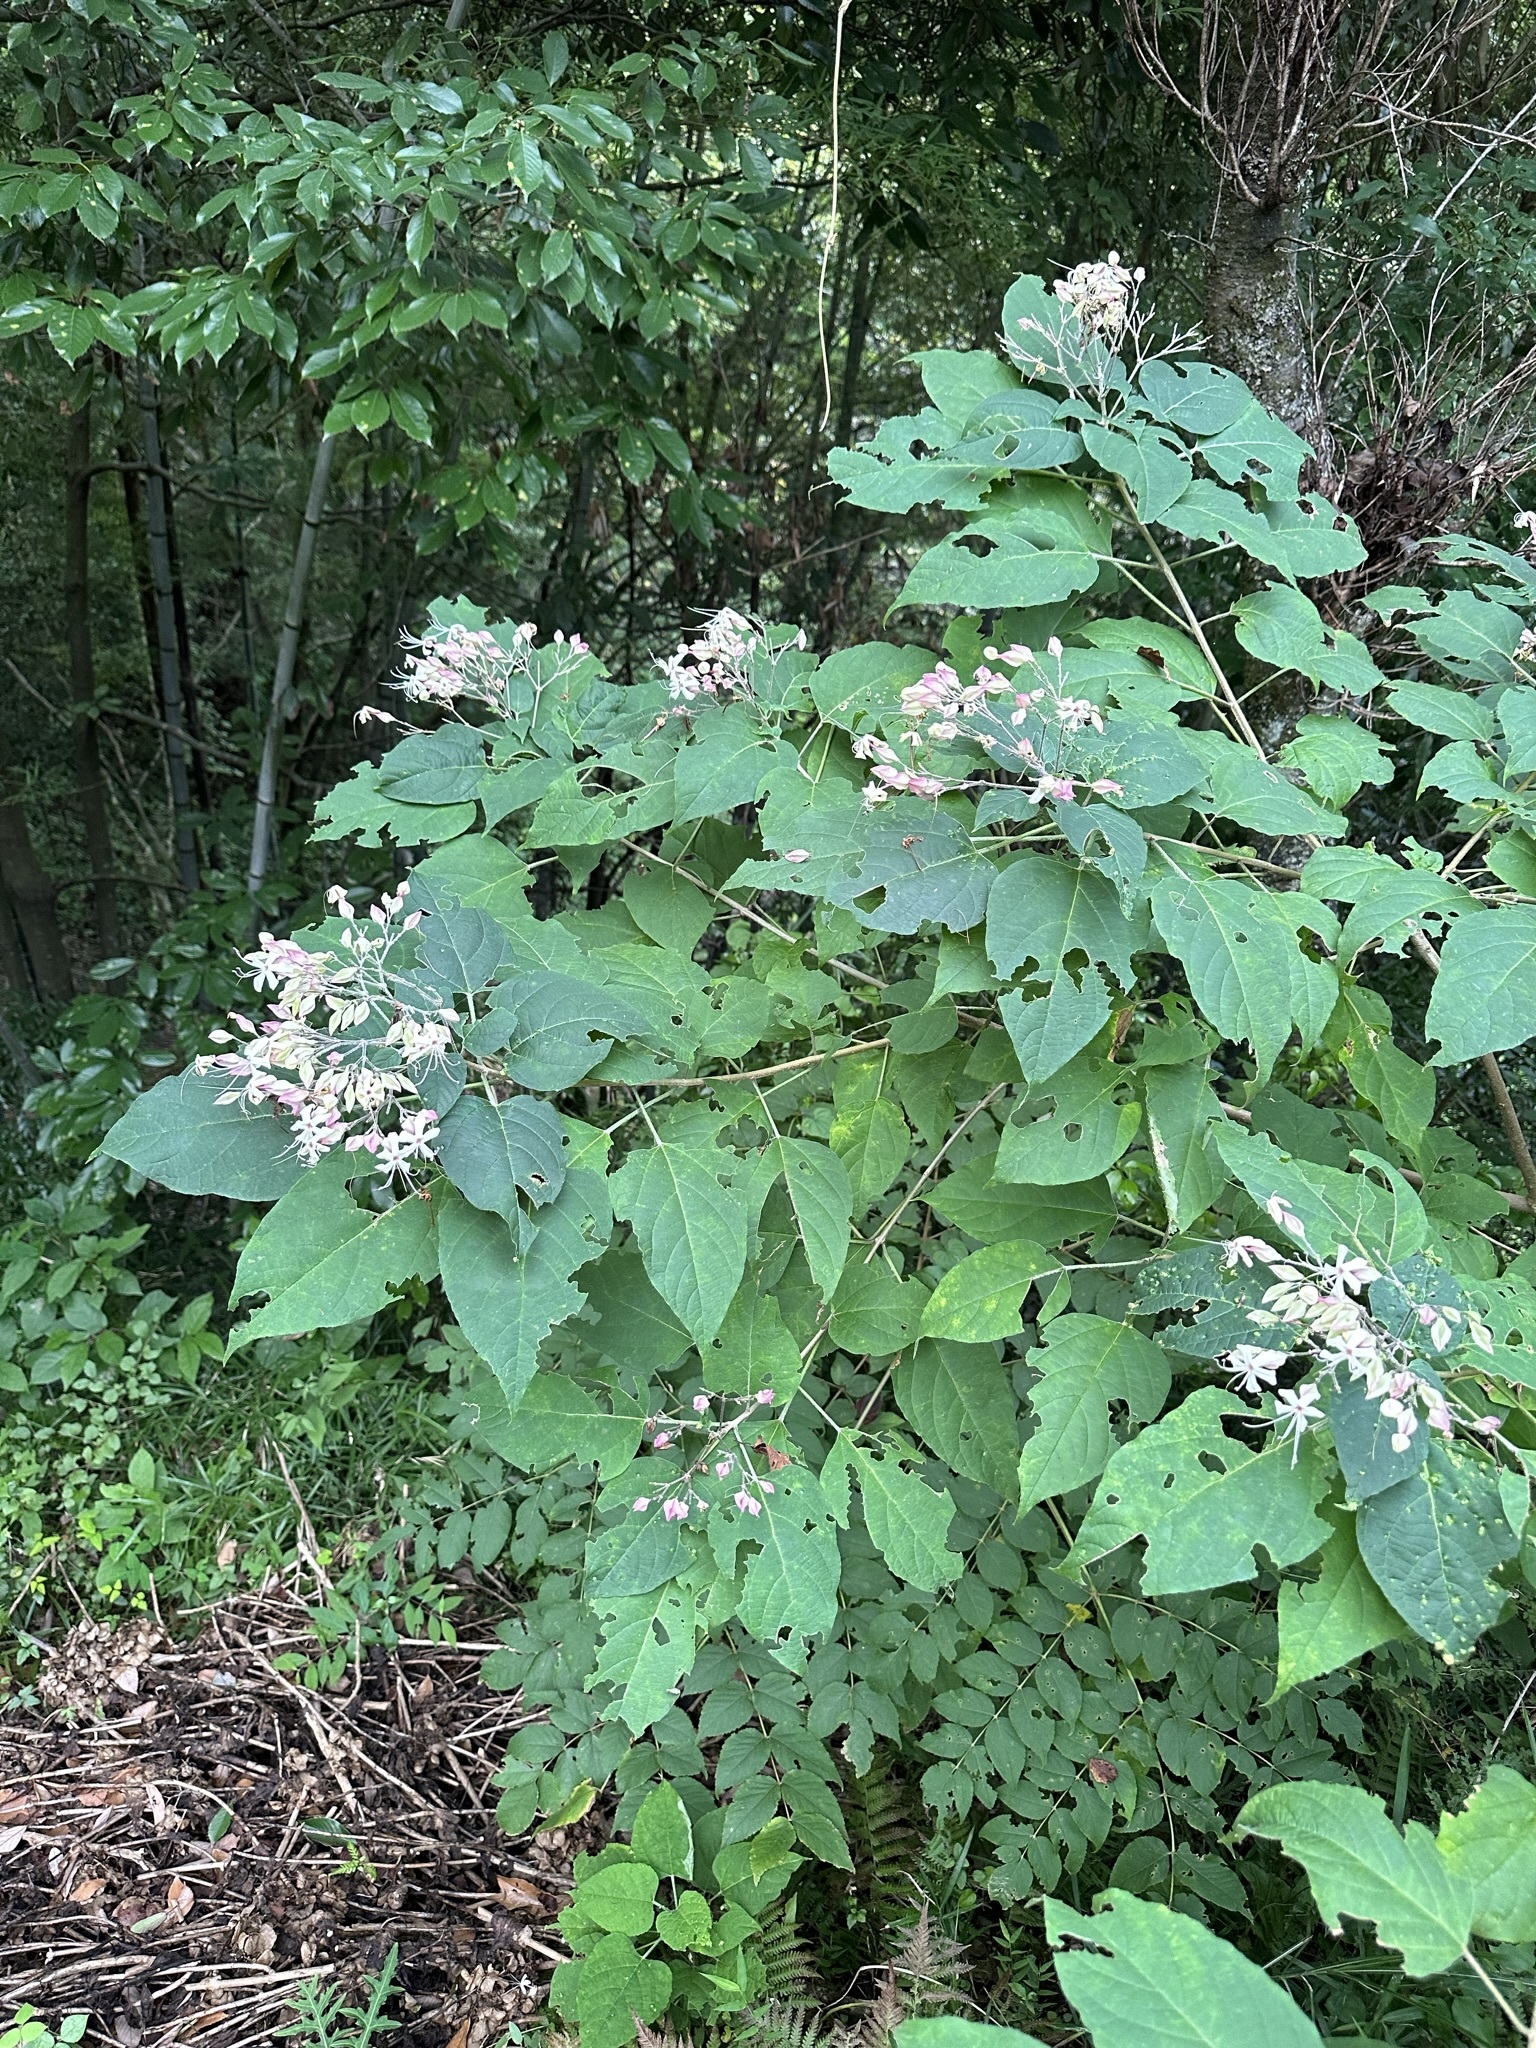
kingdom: Plantae
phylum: Tracheophyta
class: Magnoliopsida
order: Lamiales
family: Lamiaceae
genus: Clerodendrum
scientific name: Clerodendrum trichotomum
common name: Harlequin glorybower
